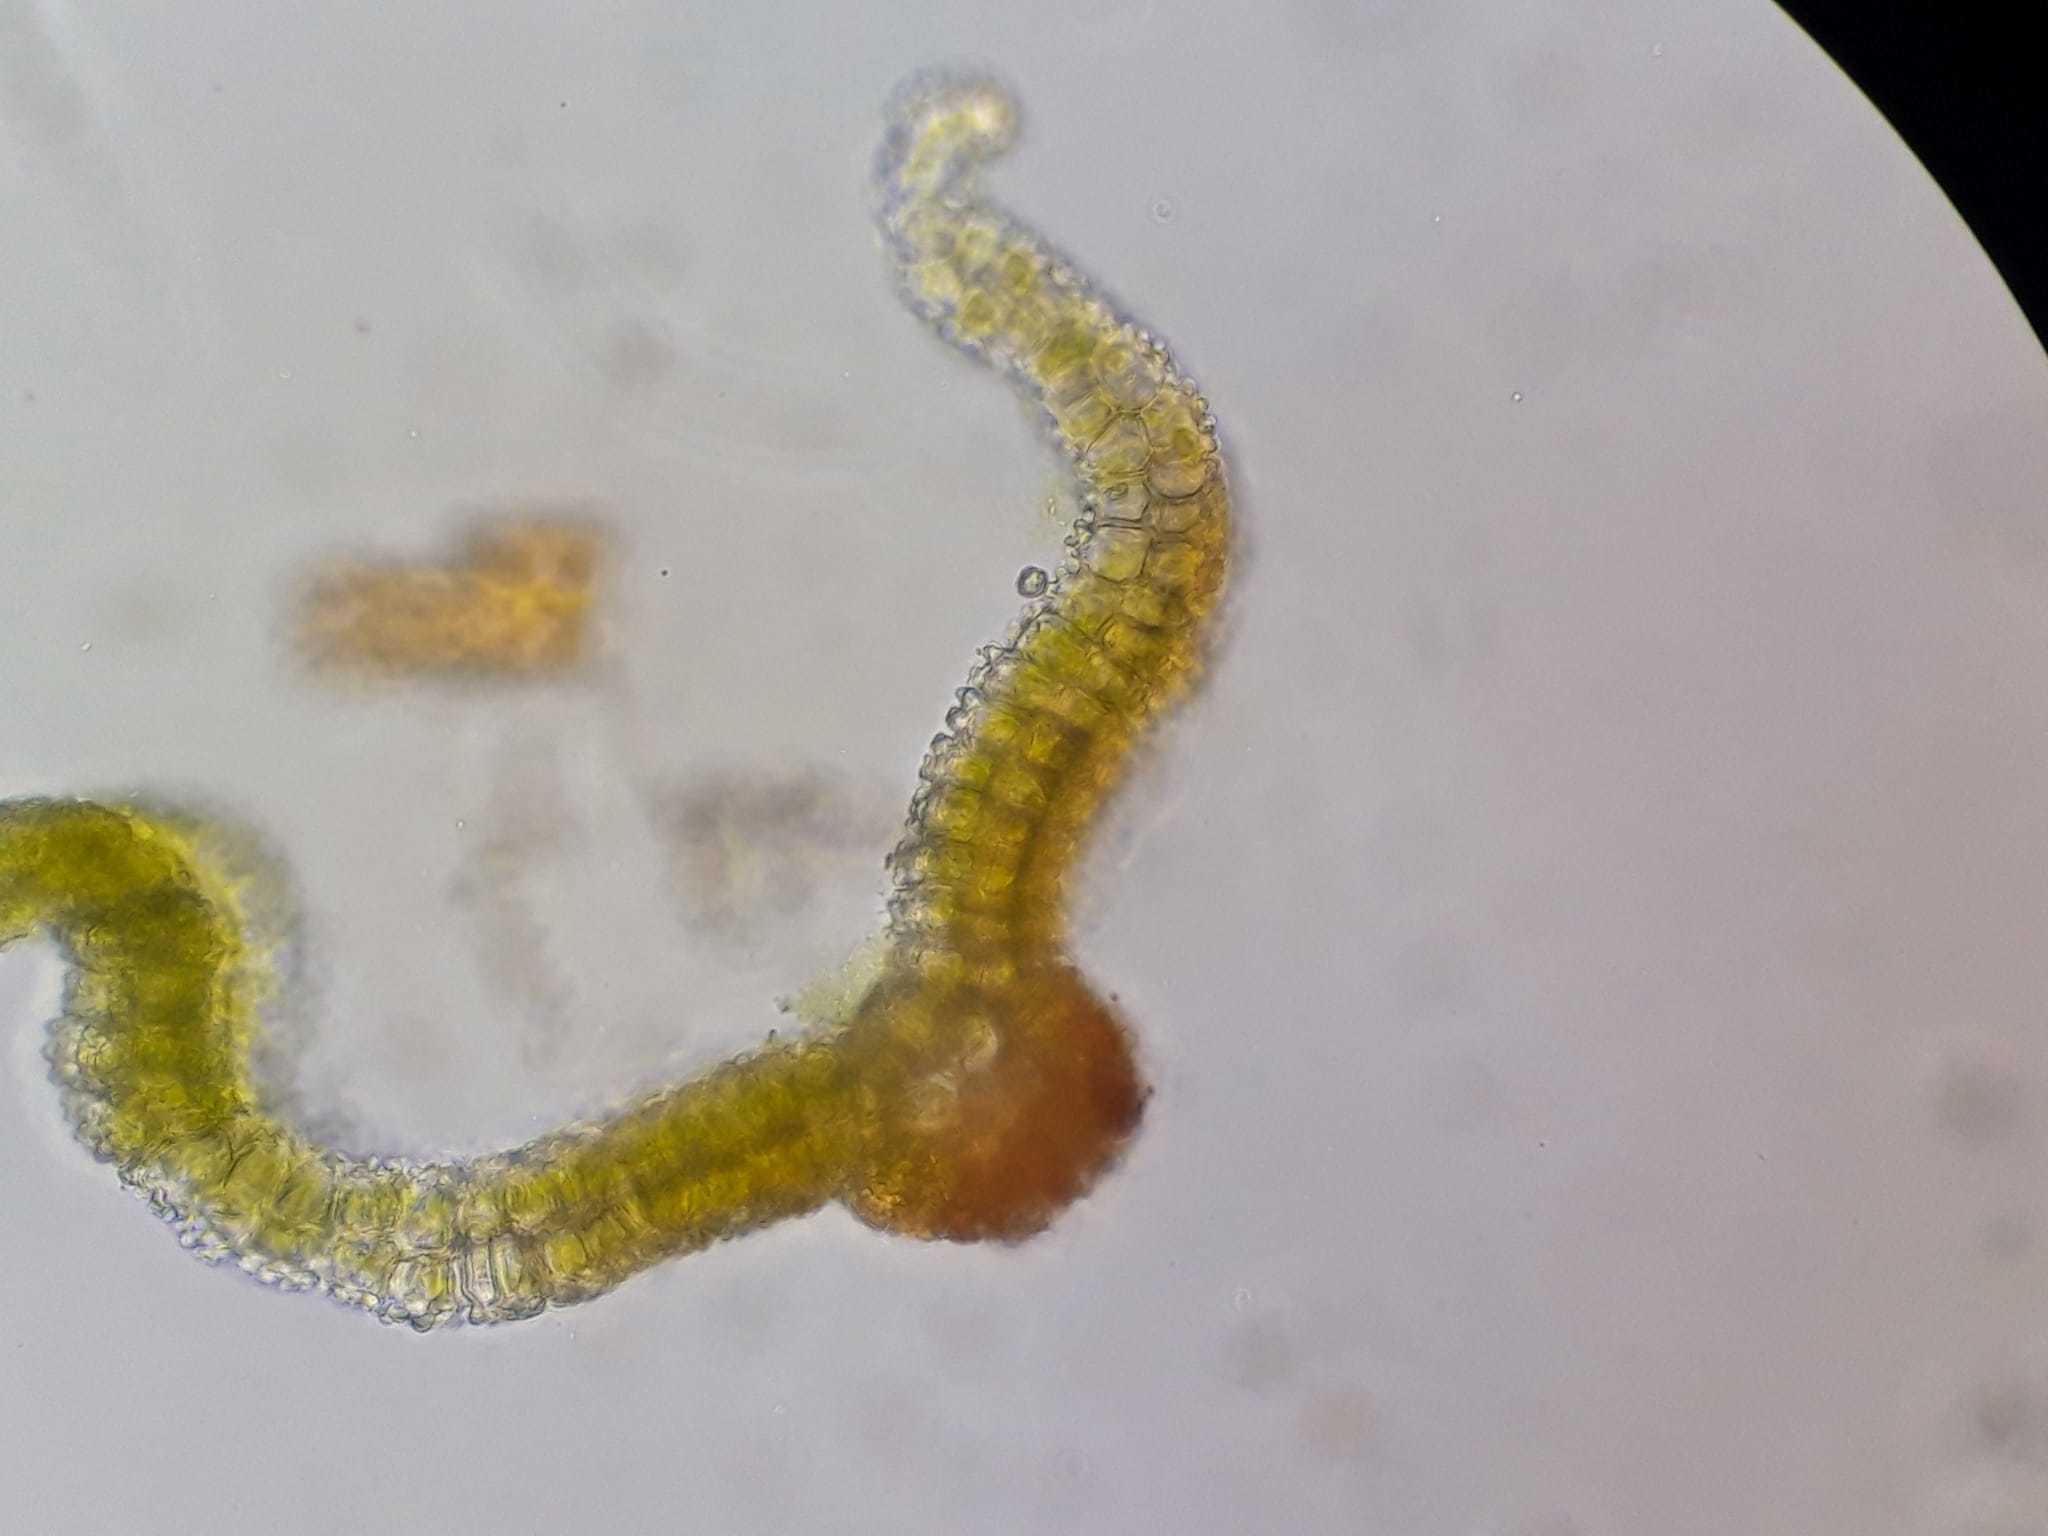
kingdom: Plantae
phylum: Bryophyta
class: Bryopsida
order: Pottiales
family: Pottiaceae
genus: Syntrichia
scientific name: Syntrichia caninervis
